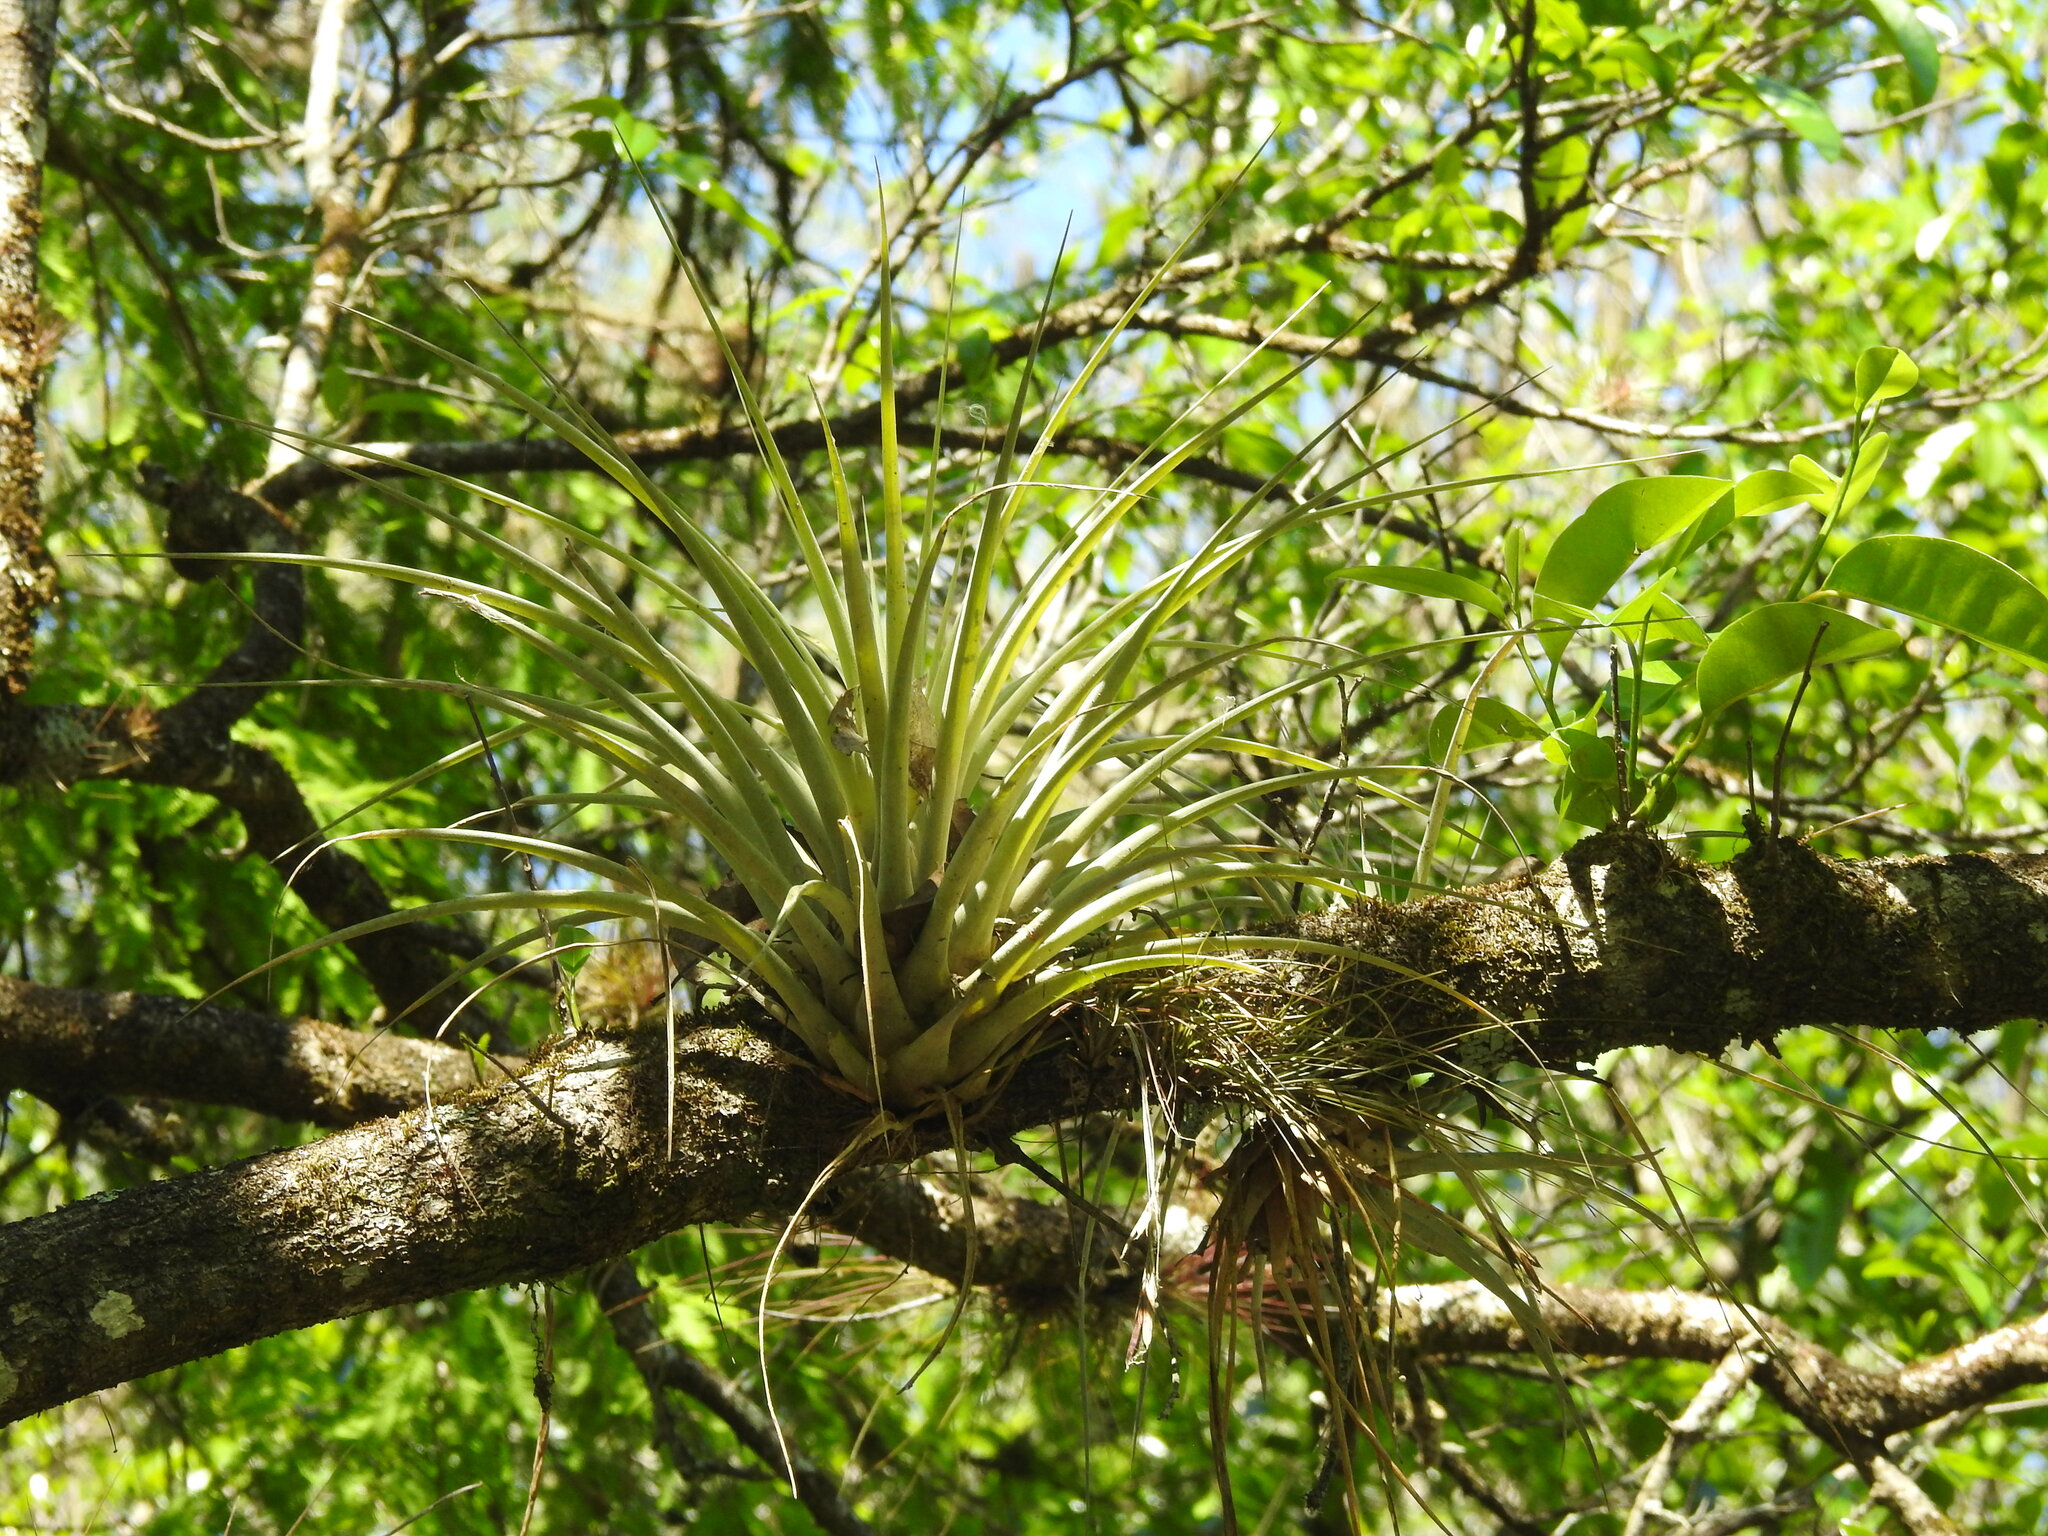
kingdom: Plantae
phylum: Tracheophyta
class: Liliopsida
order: Poales
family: Bromeliaceae
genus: Tillandsia
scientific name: Tillandsia fasciculata
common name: Giant airplant
